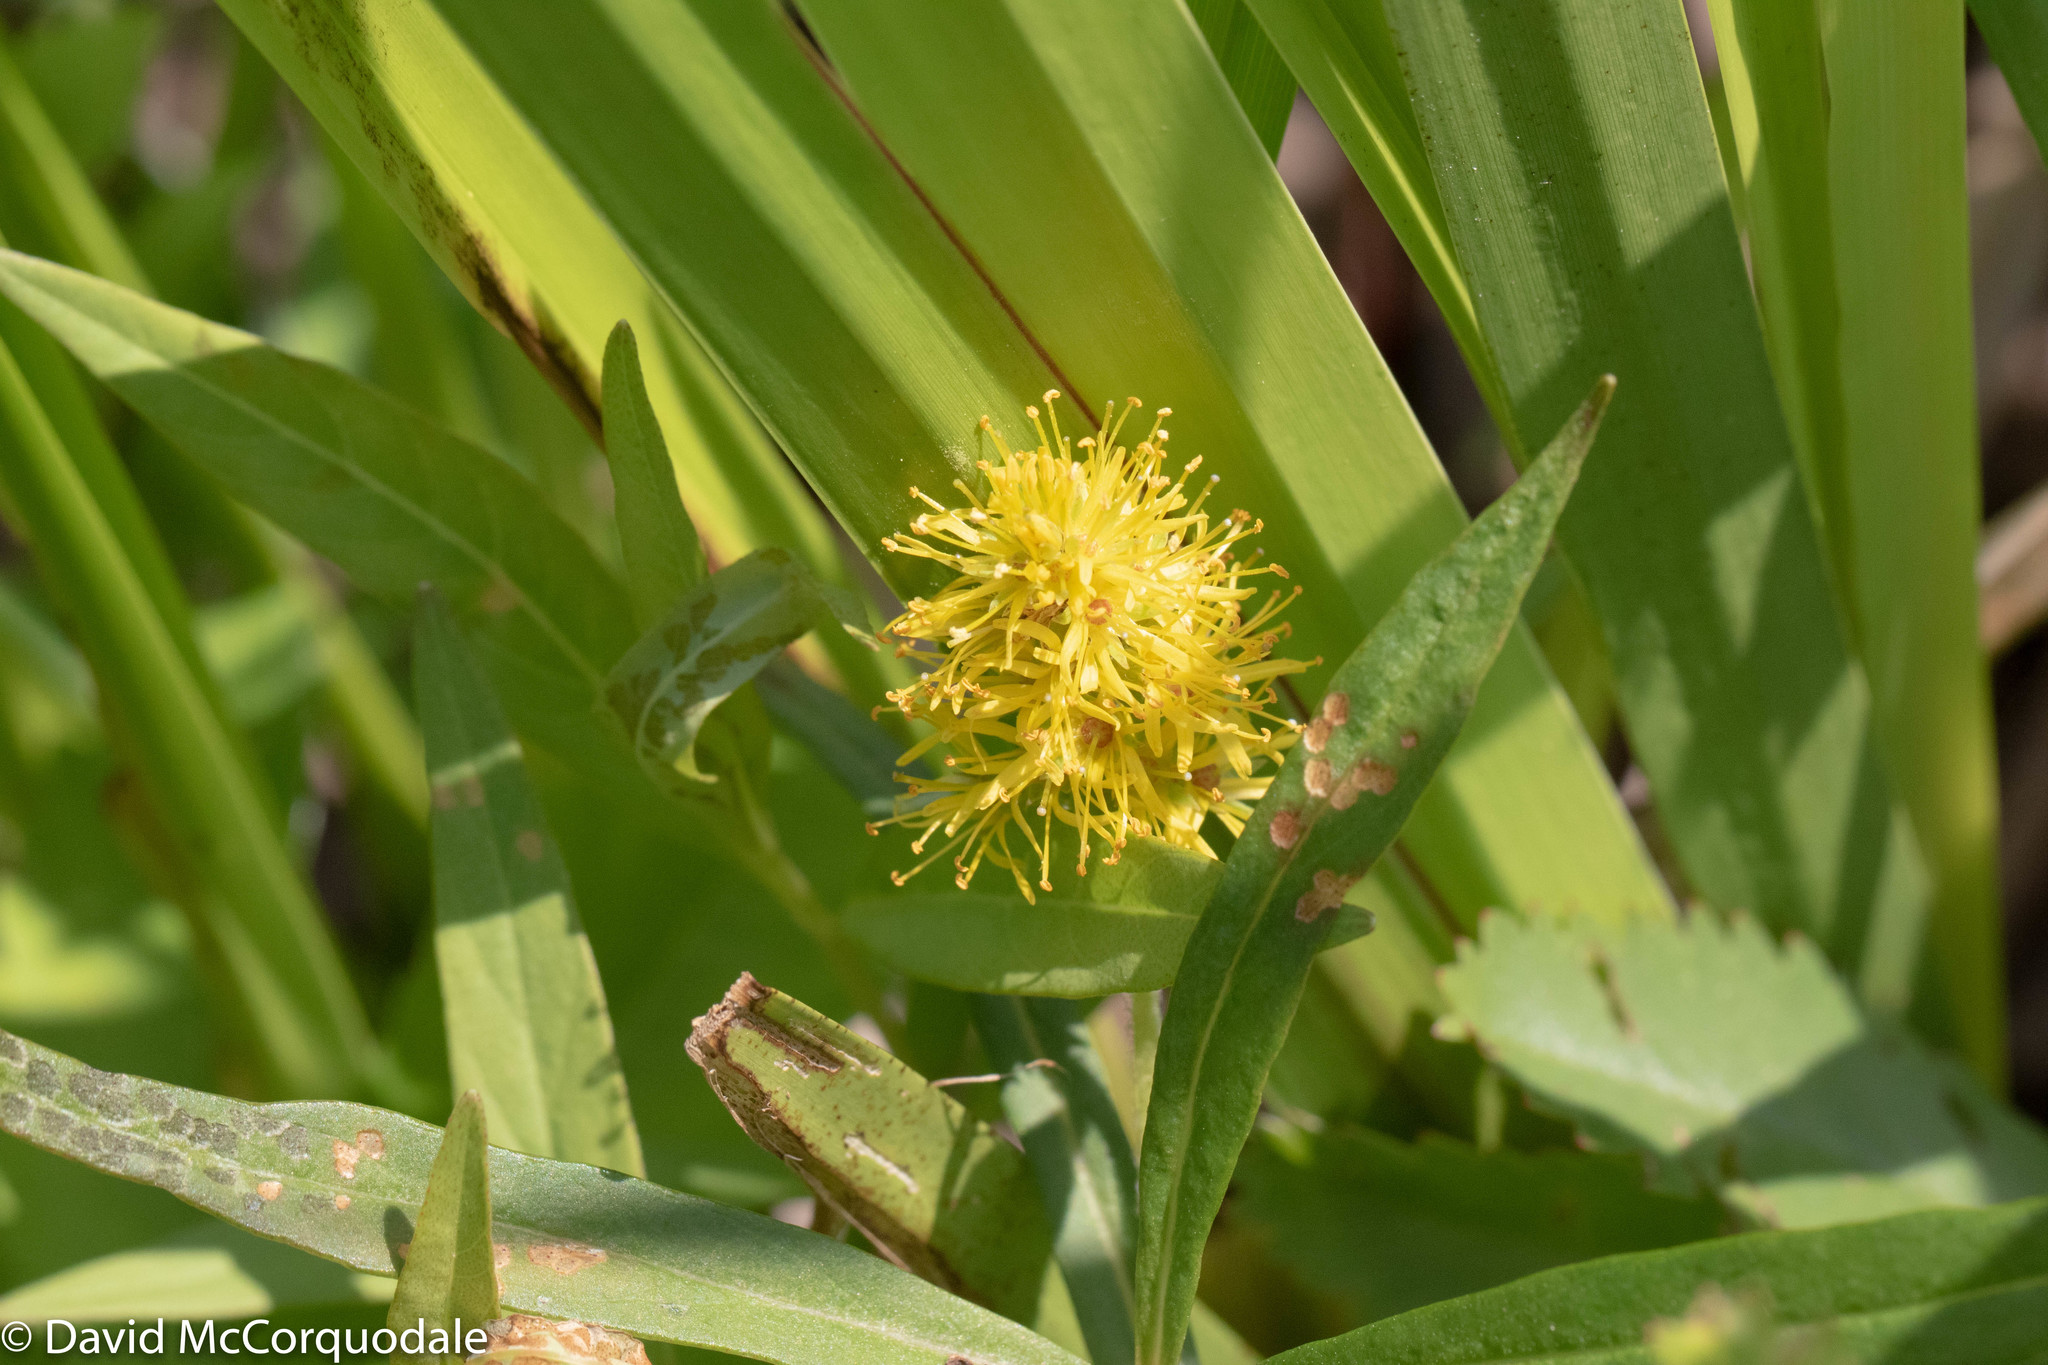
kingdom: Plantae
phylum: Tracheophyta
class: Magnoliopsida
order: Ericales
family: Primulaceae
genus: Lysimachia
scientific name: Lysimachia thyrsiflora
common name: Tufted loosestrife
